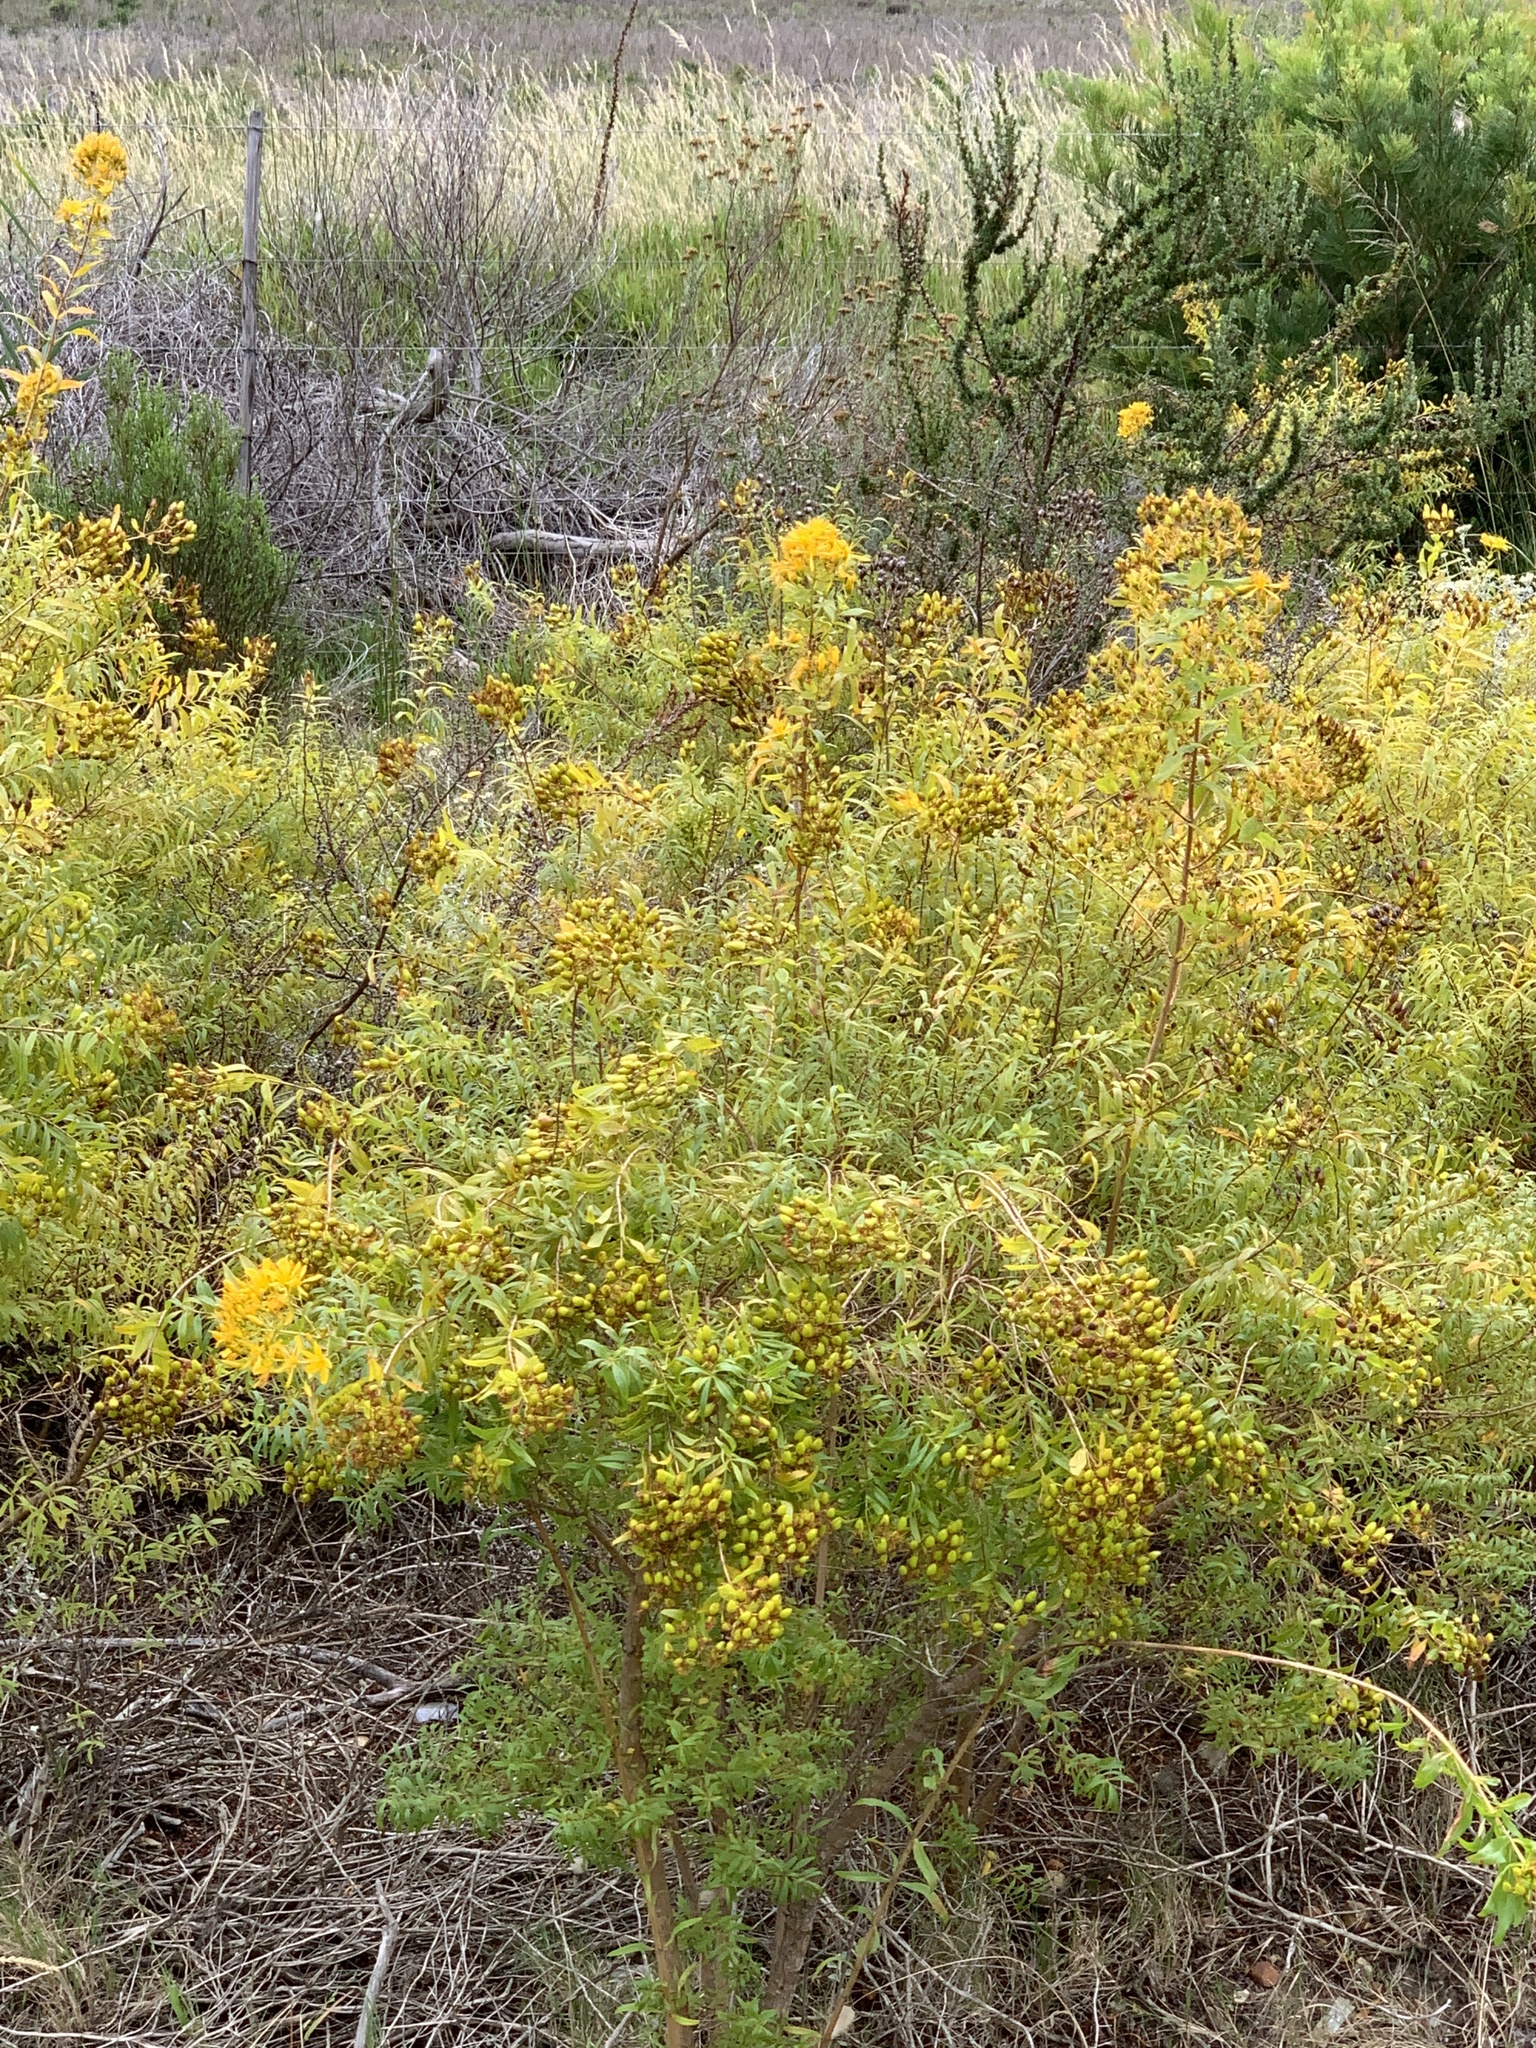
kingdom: Plantae
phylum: Tracheophyta
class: Magnoliopsida
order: Malpighiales
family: Hypericaceae
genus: Hypericum
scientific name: Hypericum canariense
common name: Canary island st. johnswort
